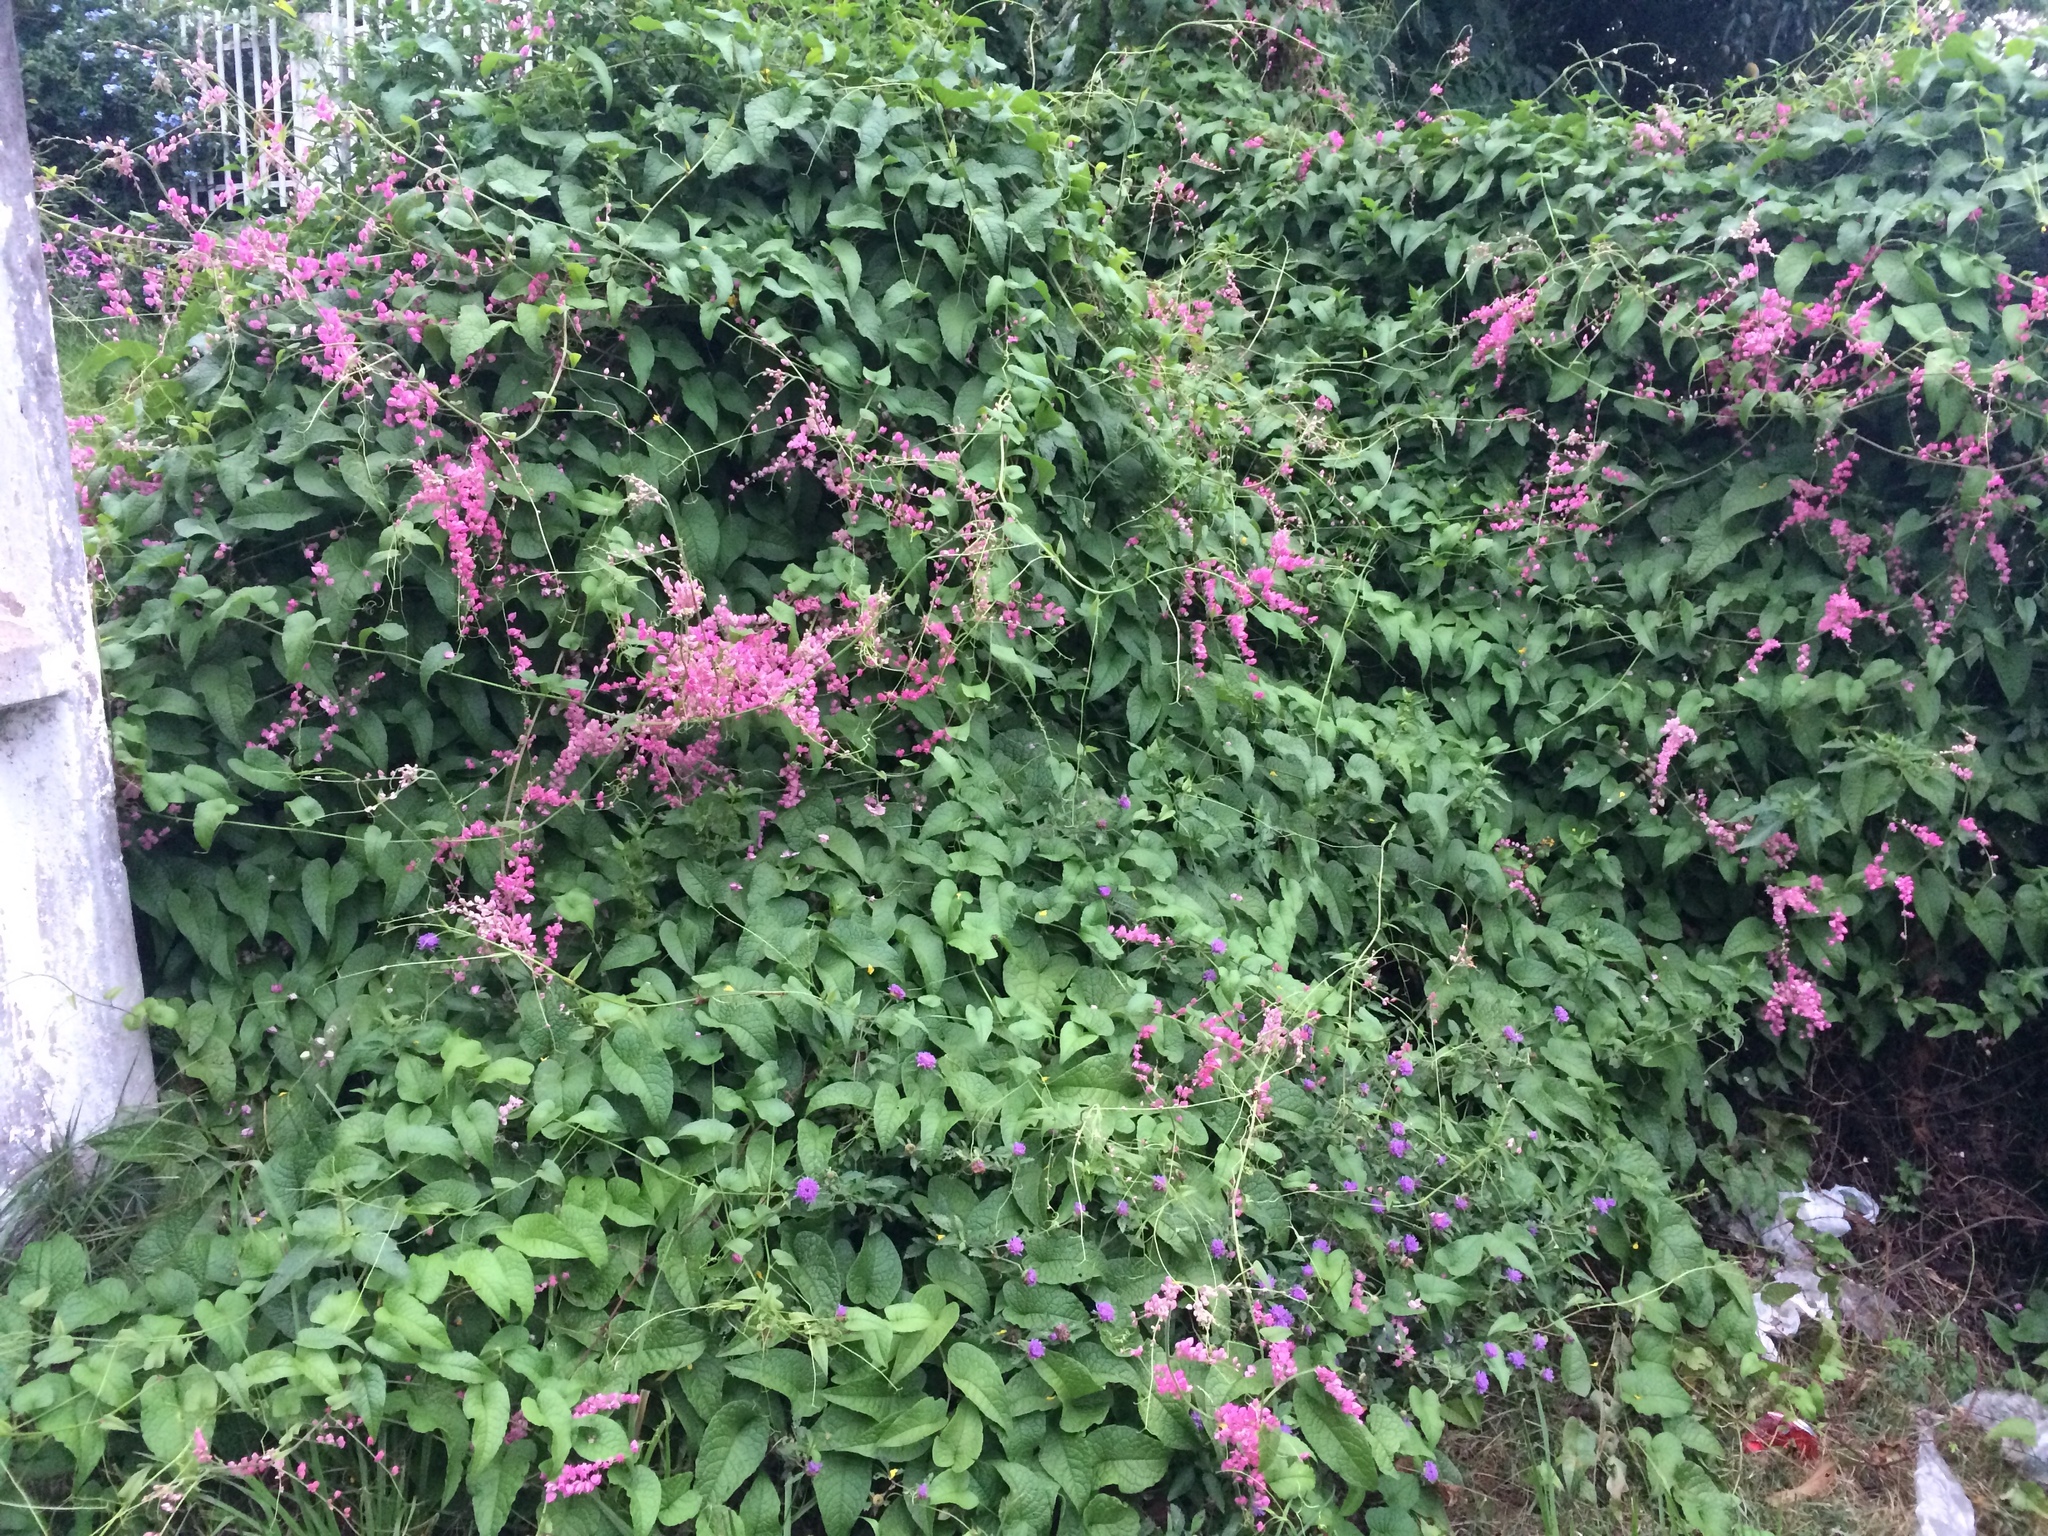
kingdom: Plantae
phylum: Tracheophyta
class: Magnoliopsida
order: Caryophyllales
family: Polygonaceae
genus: Antigonon
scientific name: Antigonon leptopus
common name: Coral vine
